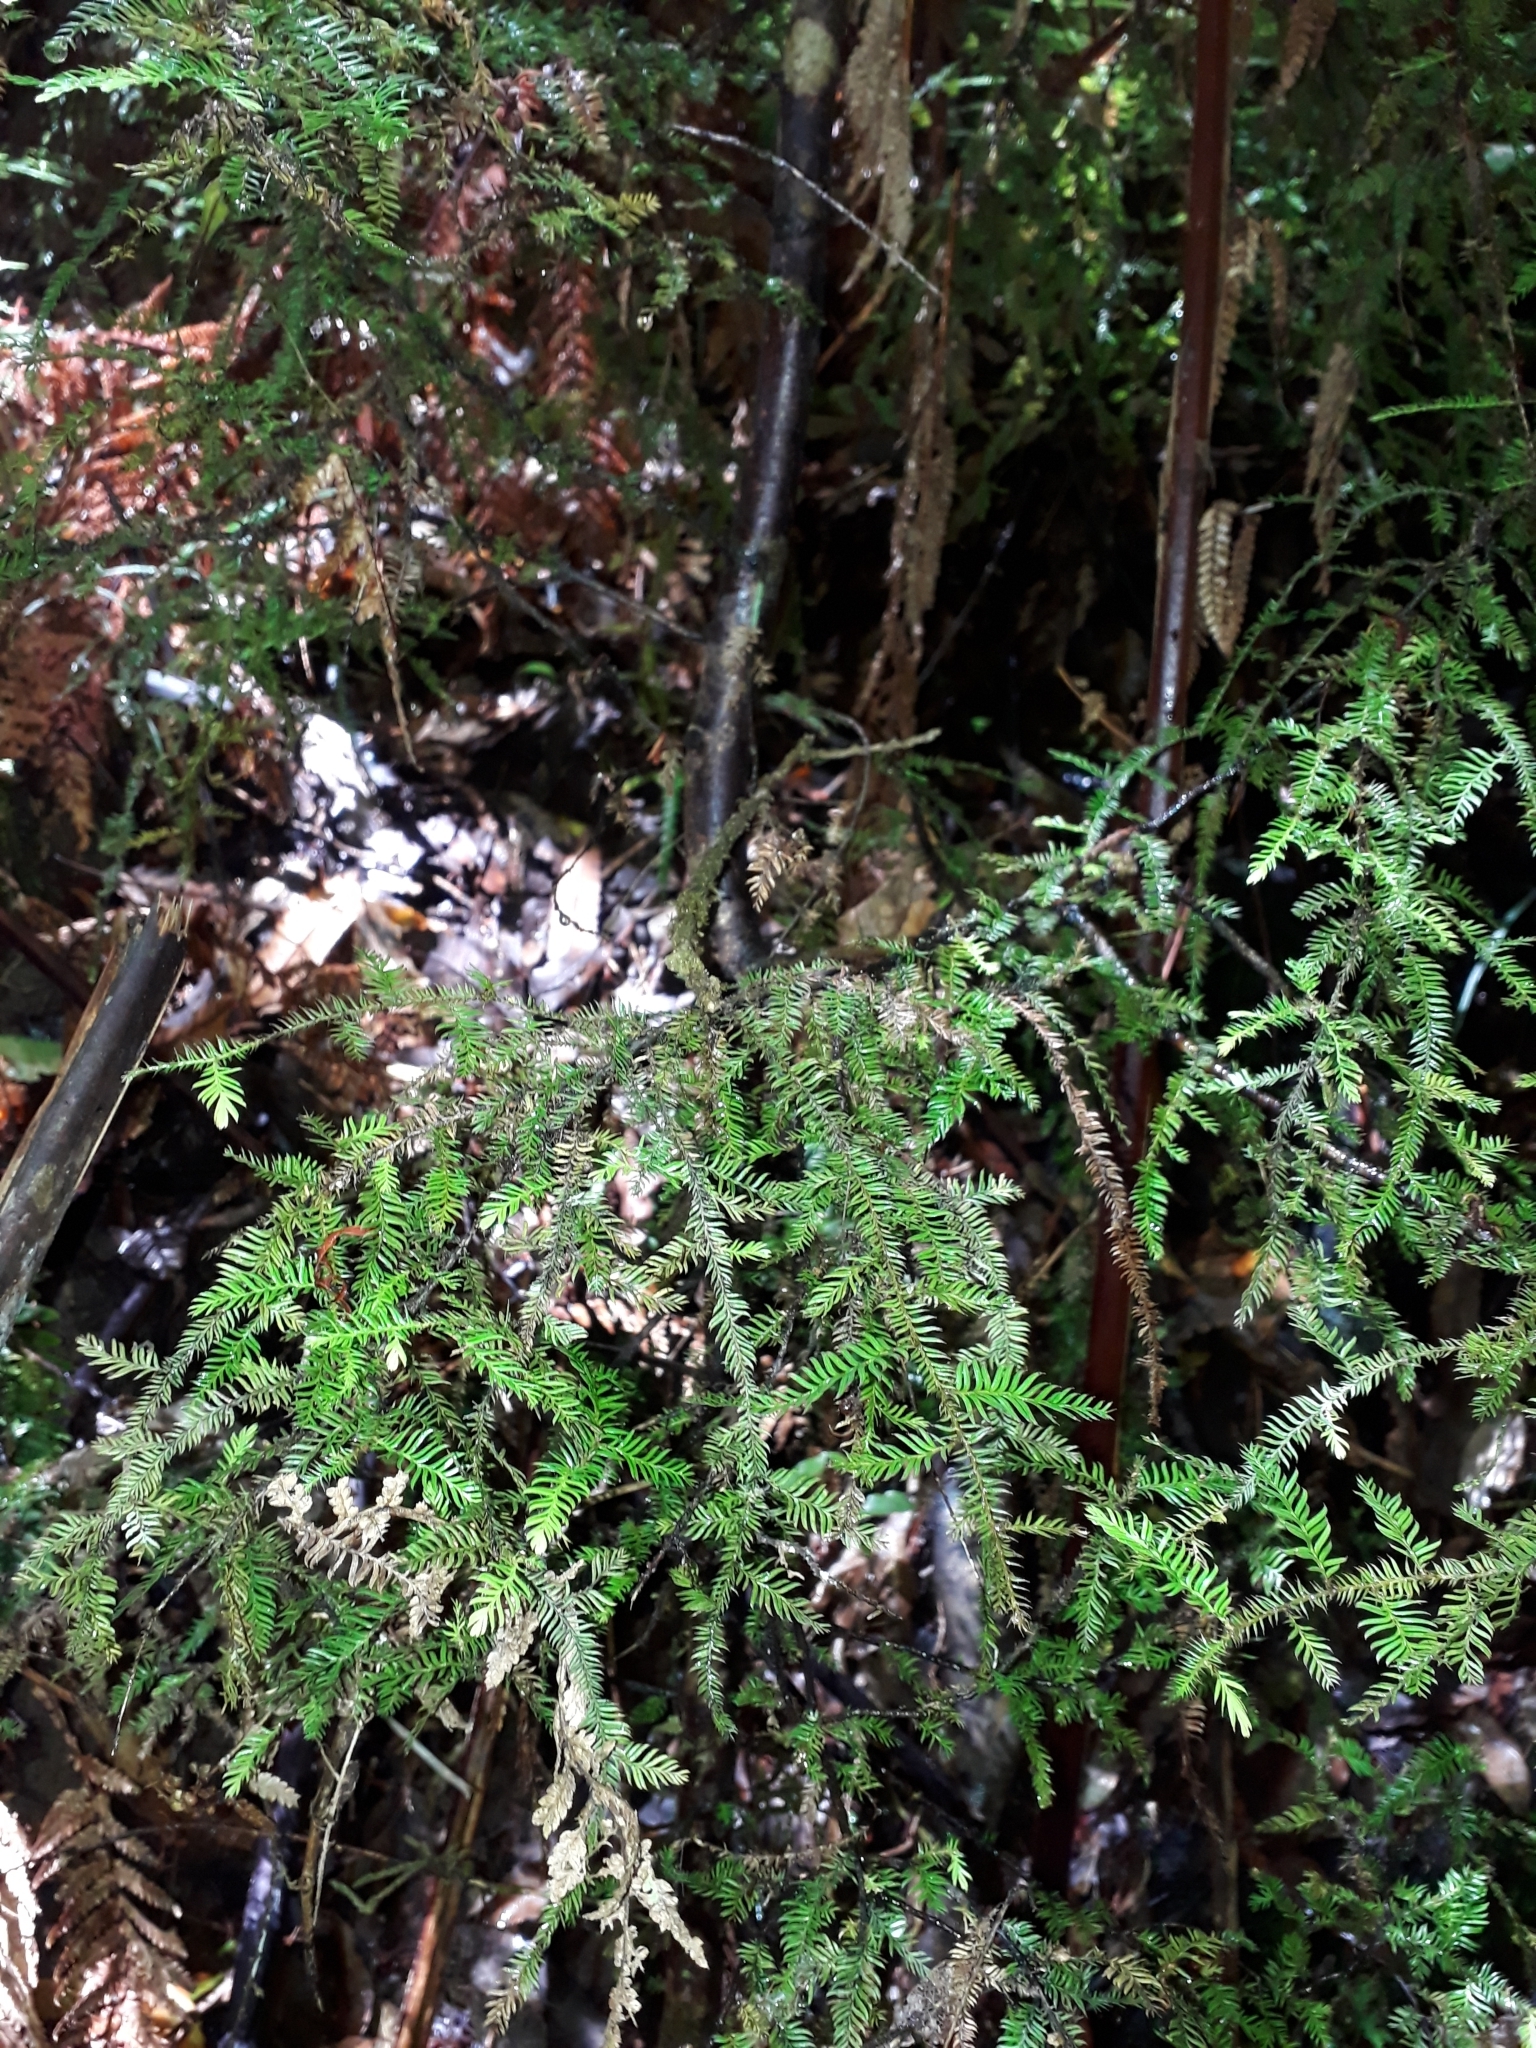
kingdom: Plantae
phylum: Tracheophyta
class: Pinopsida
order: Pinales
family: Podocarpaceae
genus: Dacrycarpus
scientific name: Dacrycarpus dacrydioides
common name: White pine
